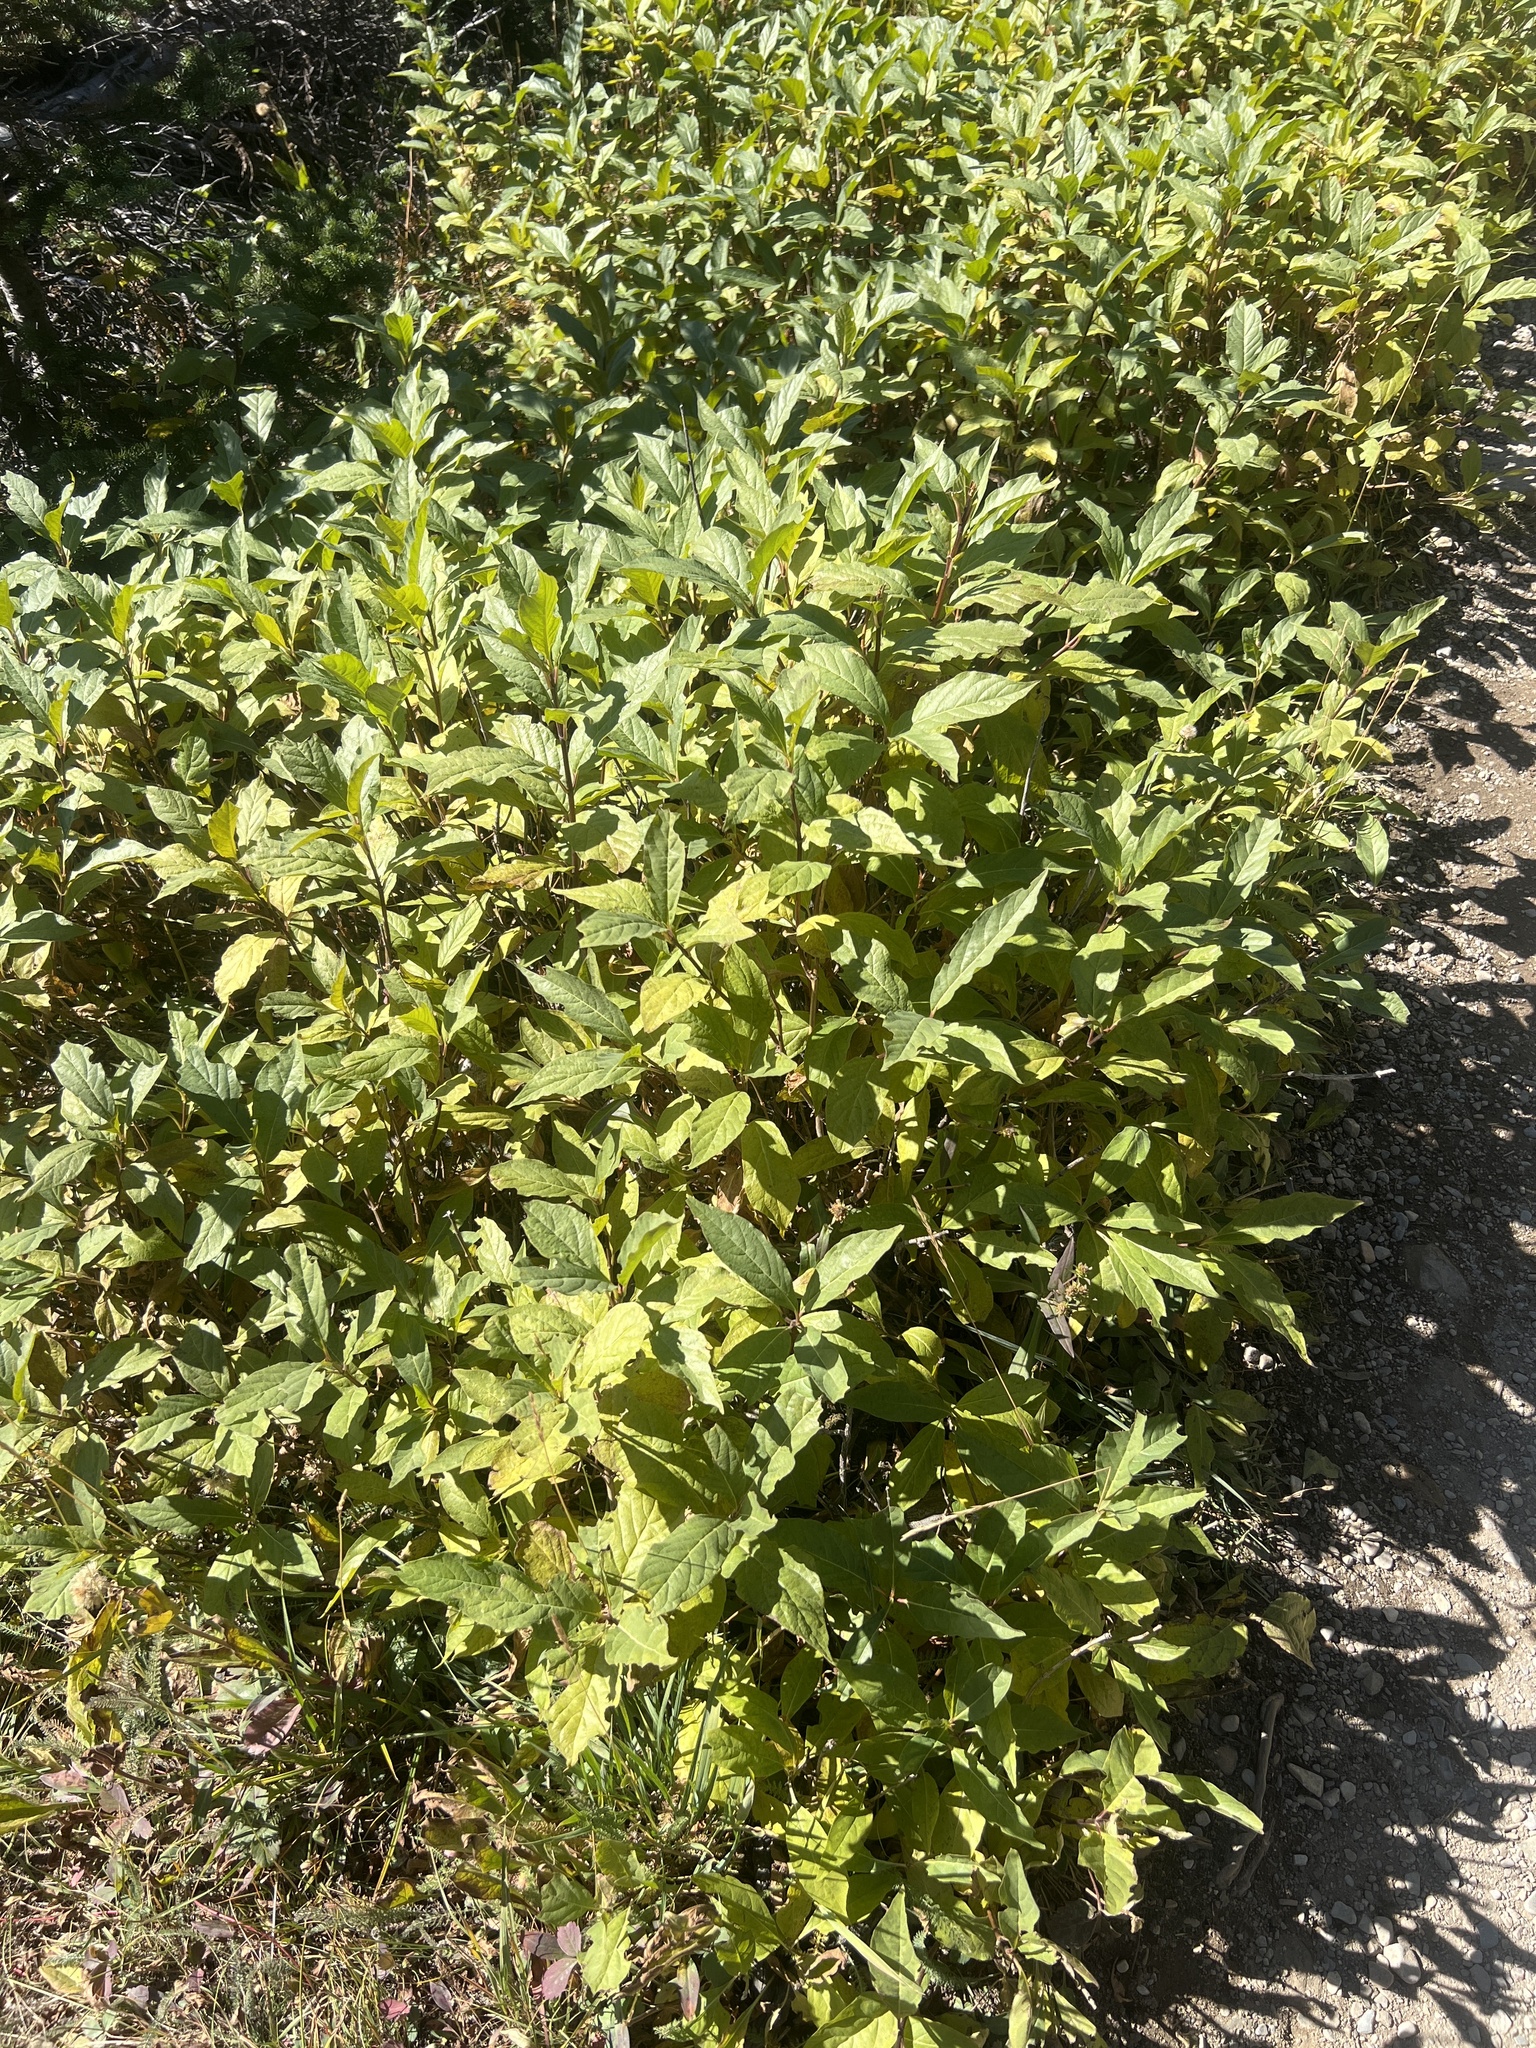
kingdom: Plantae
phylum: Tracheophyta
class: Magnoliopsida
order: Dipsacales
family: Caprifoliaceae
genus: Lonicera
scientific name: Lonicera involucrata
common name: Californian honeysuckle
